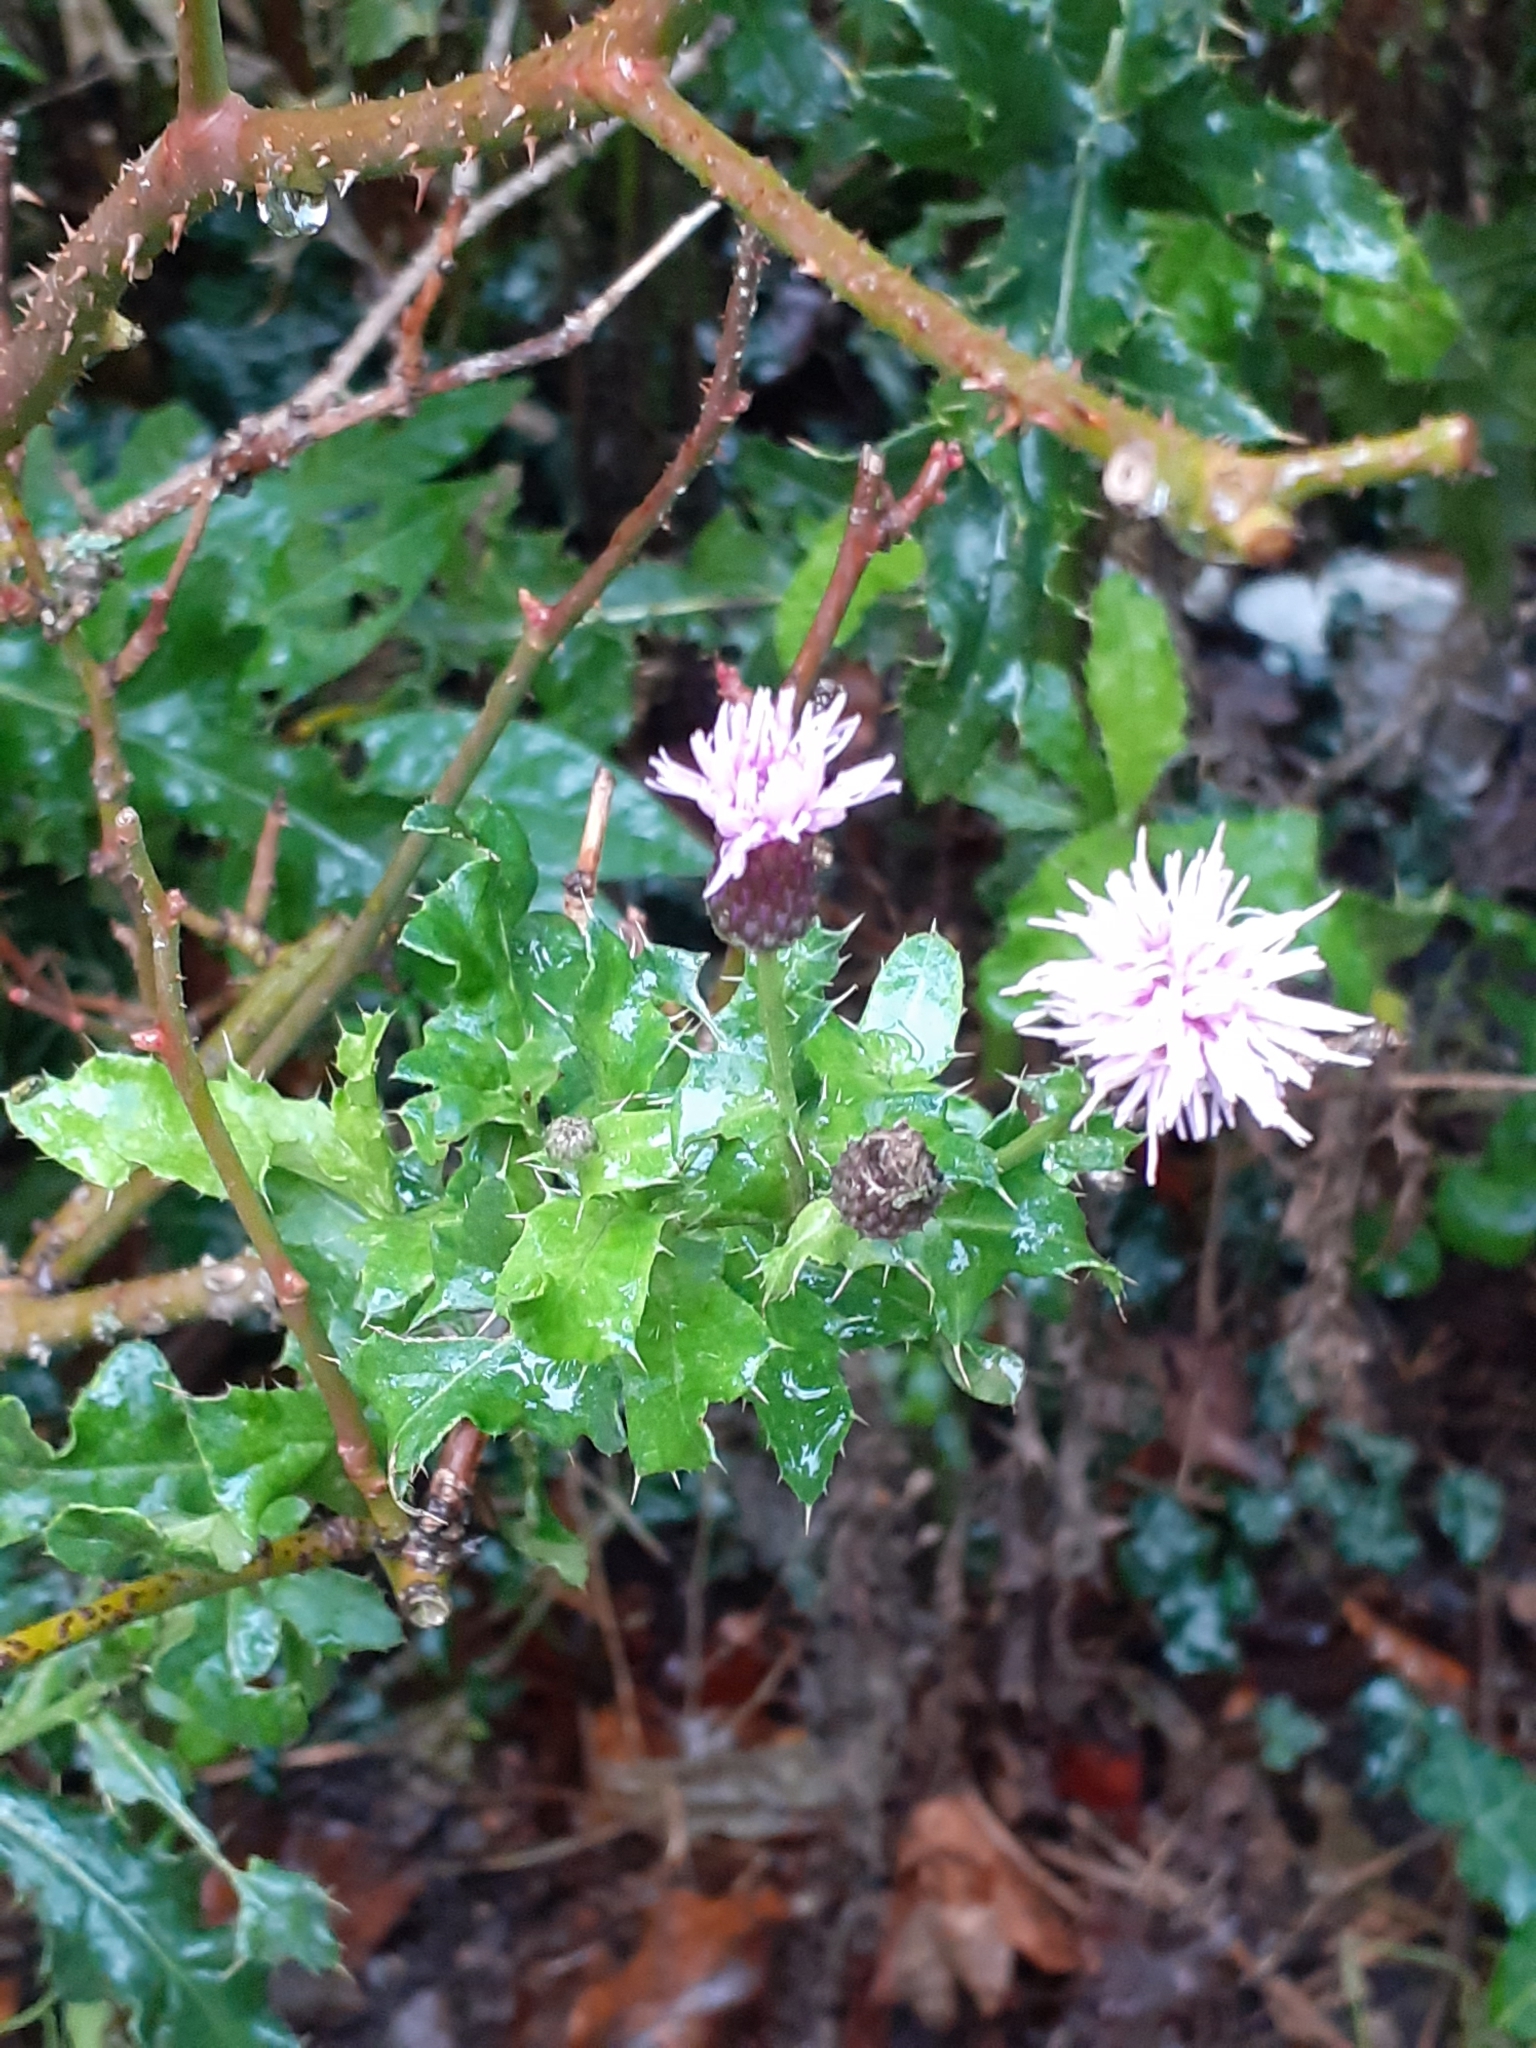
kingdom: Plantae
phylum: Tracheophyta
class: Magnoliopsida
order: Asterales
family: Asteraceae
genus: Cirsium
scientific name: Cirsium arvense
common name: Creeping thistle
